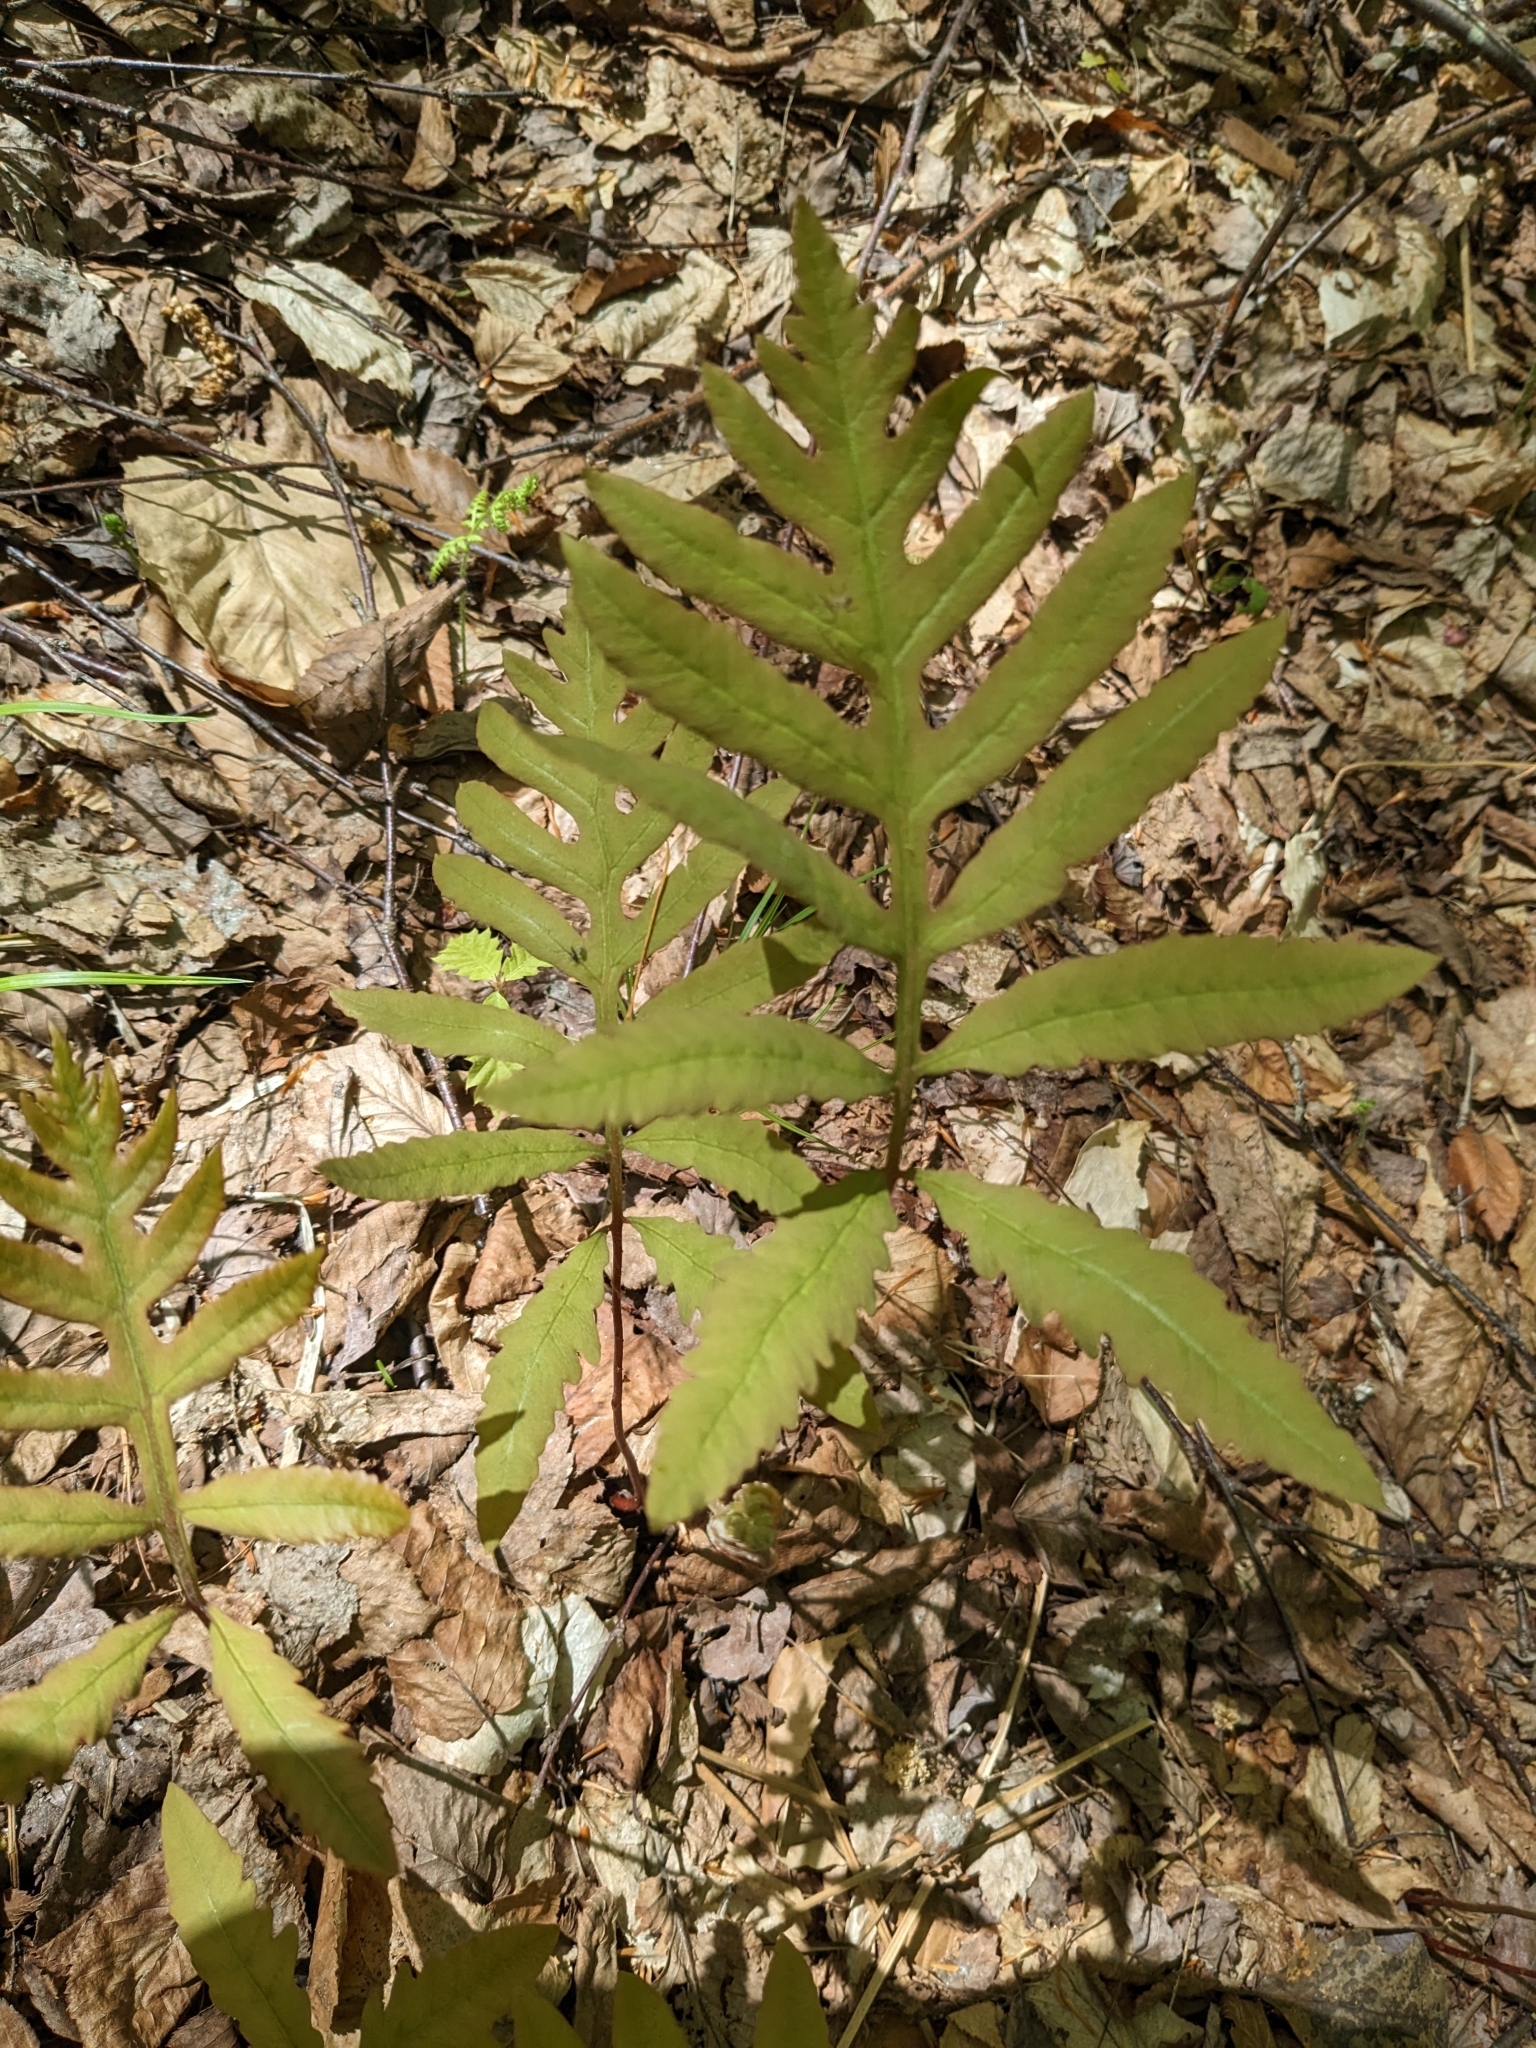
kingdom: Plantae
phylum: Tracheophyta
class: Polypodiopsida
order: Polypodiales
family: Onocleaceae
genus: Onoclea
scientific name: Onoclea sensibilis
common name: Sensitive fern
